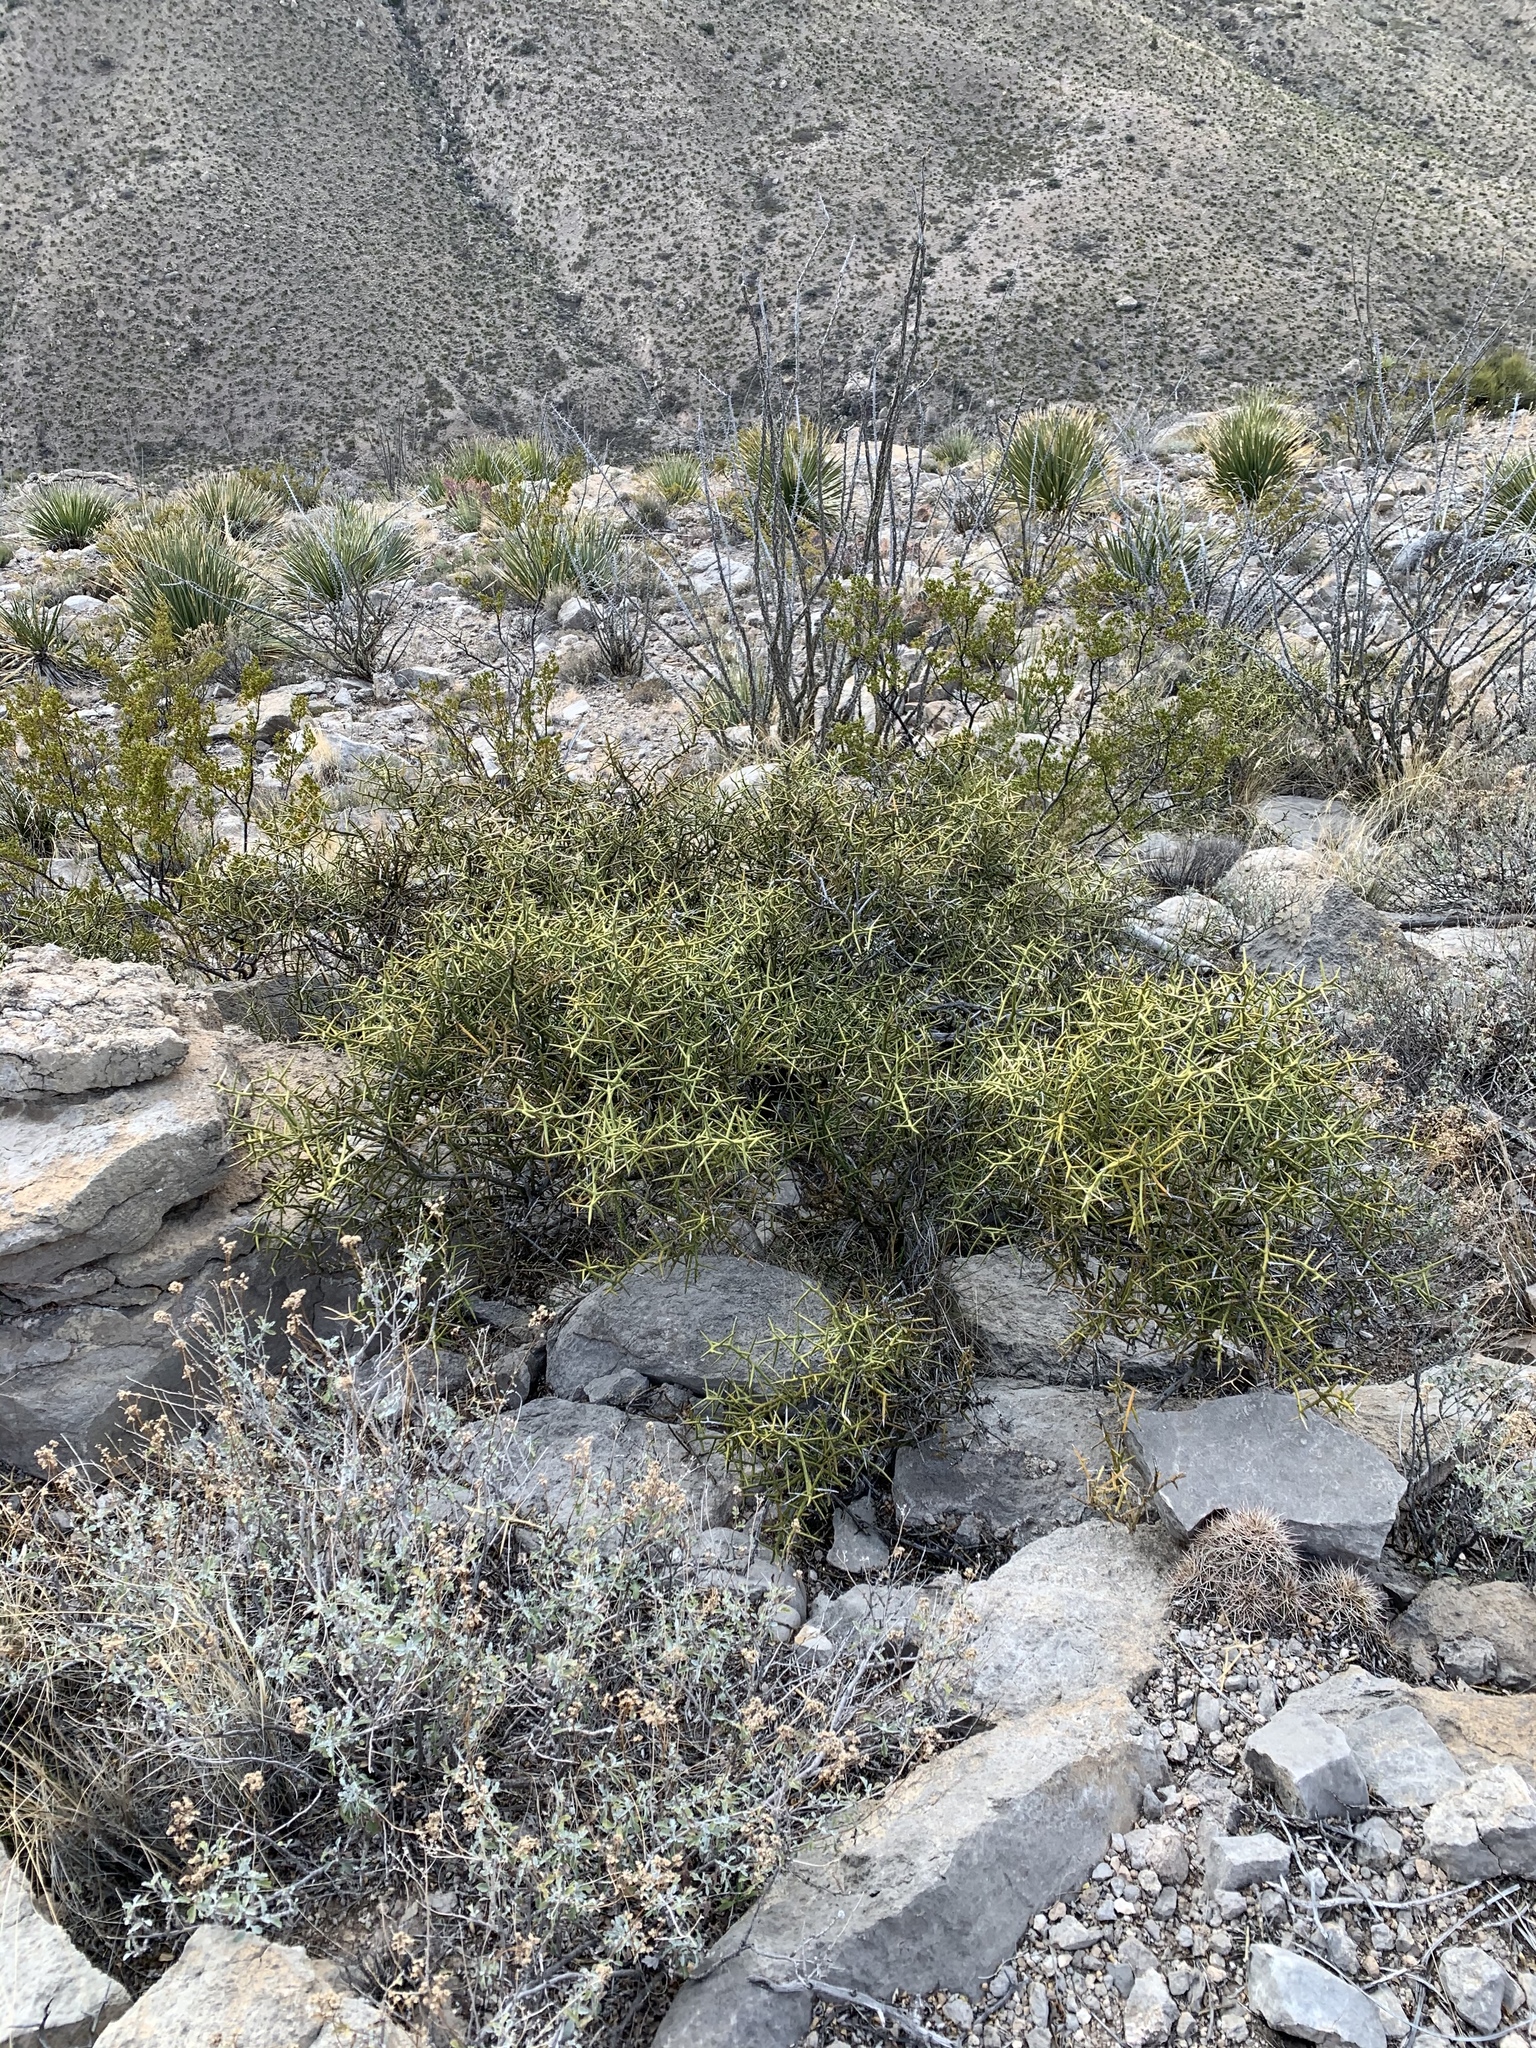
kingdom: Plantae
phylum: Tracheophyta
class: Magnoliopsida
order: Sapindales
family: Rutaceae
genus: Choisya
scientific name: Choisya dumosa
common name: Mexican-orange
